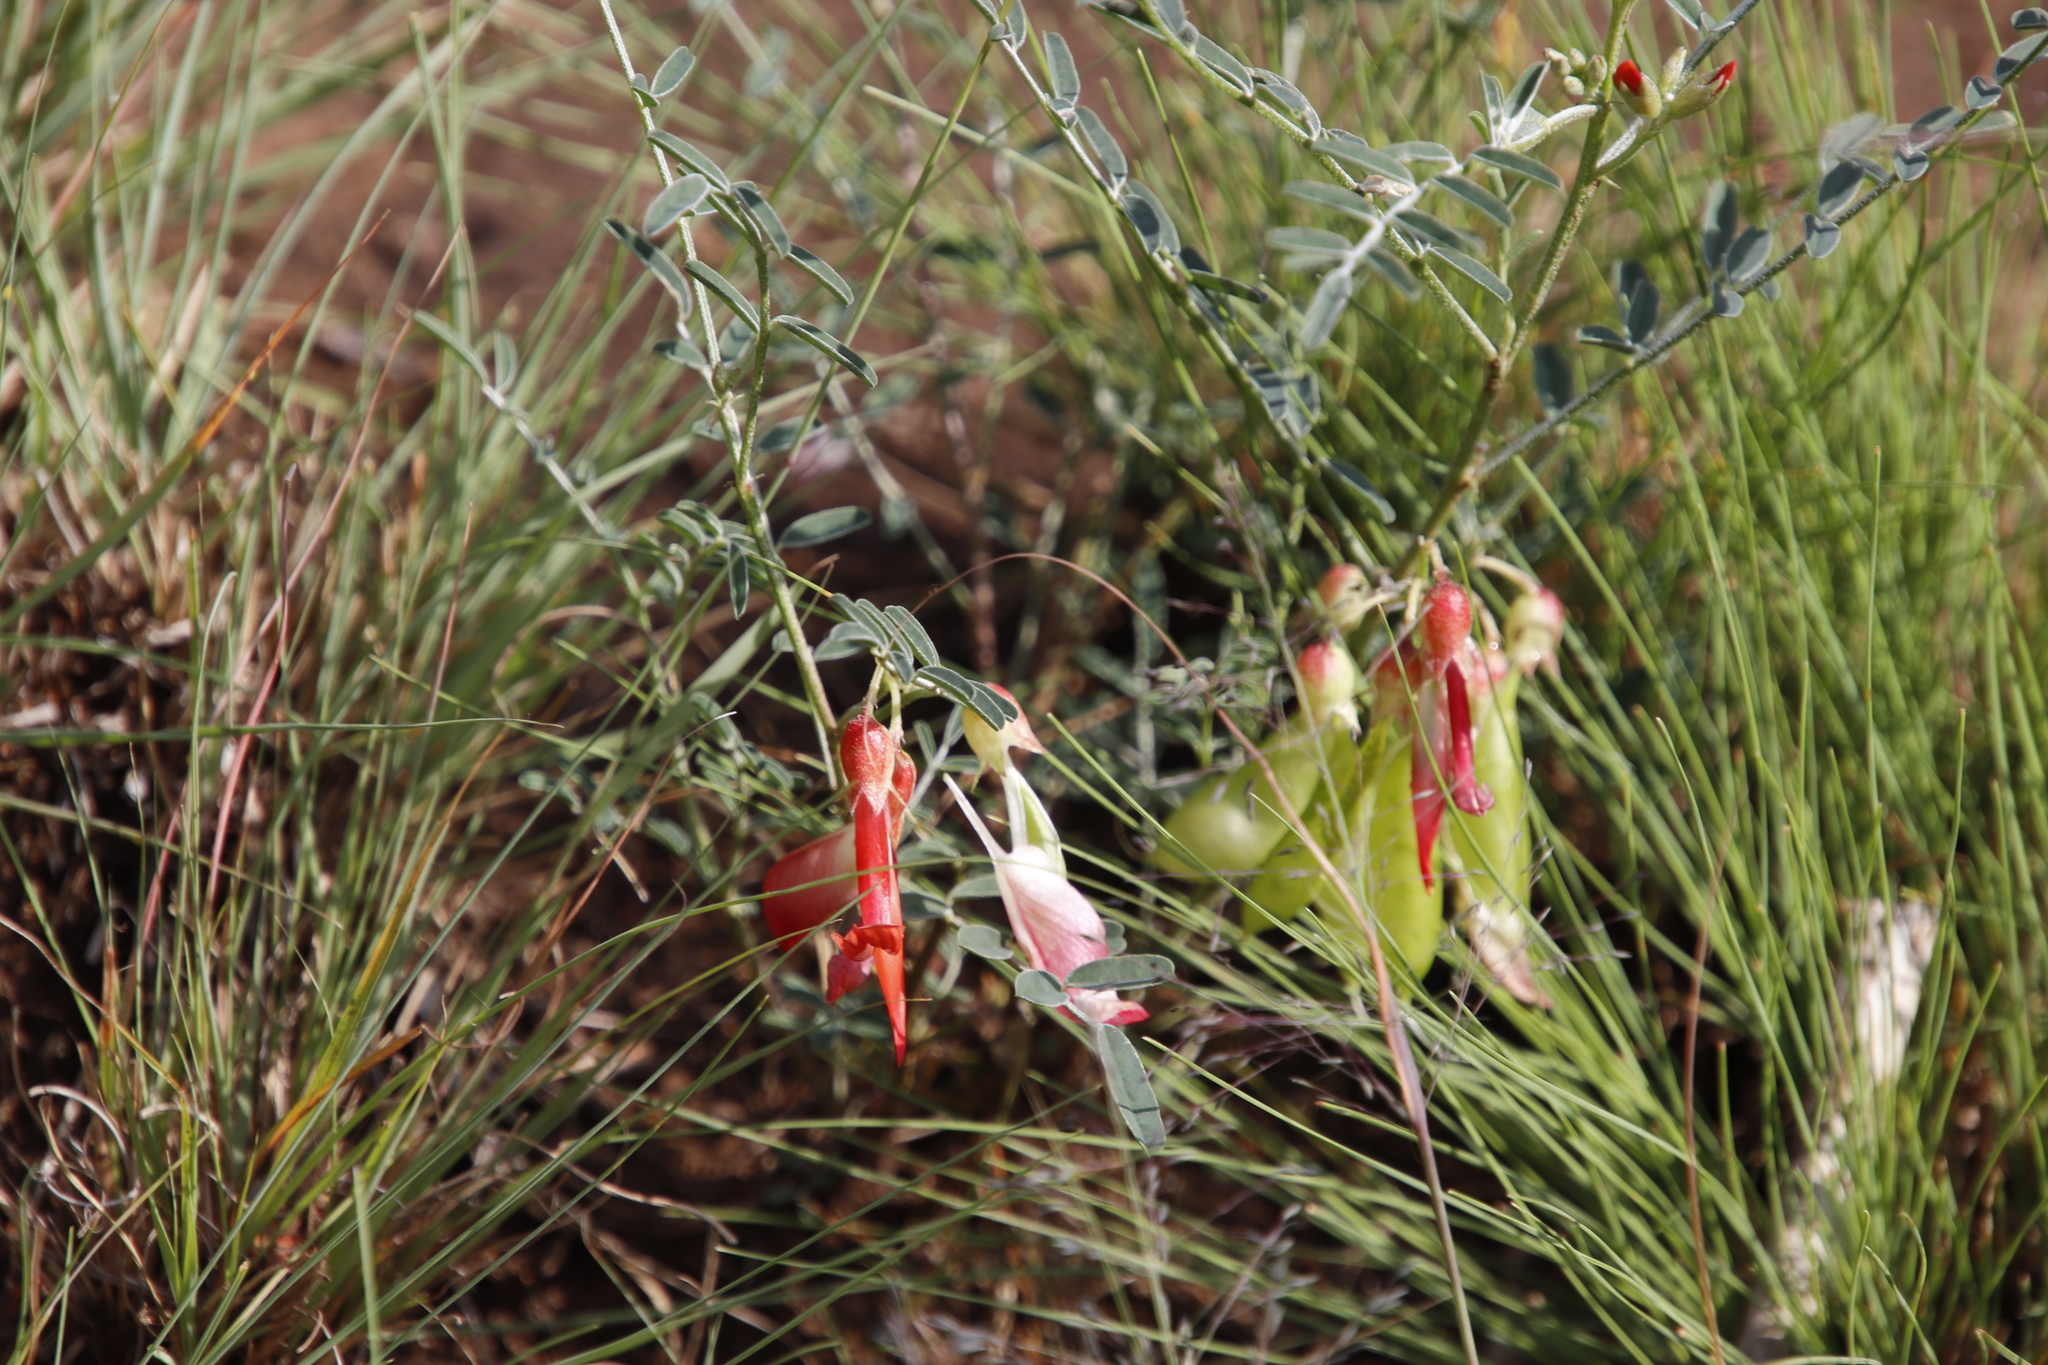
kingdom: Plantae
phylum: Tracheophyta
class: Magnoliopsida
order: Fabales
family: Fabaceae
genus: Lessertia
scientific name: Lessertia frutescens
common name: Balloon-pea
